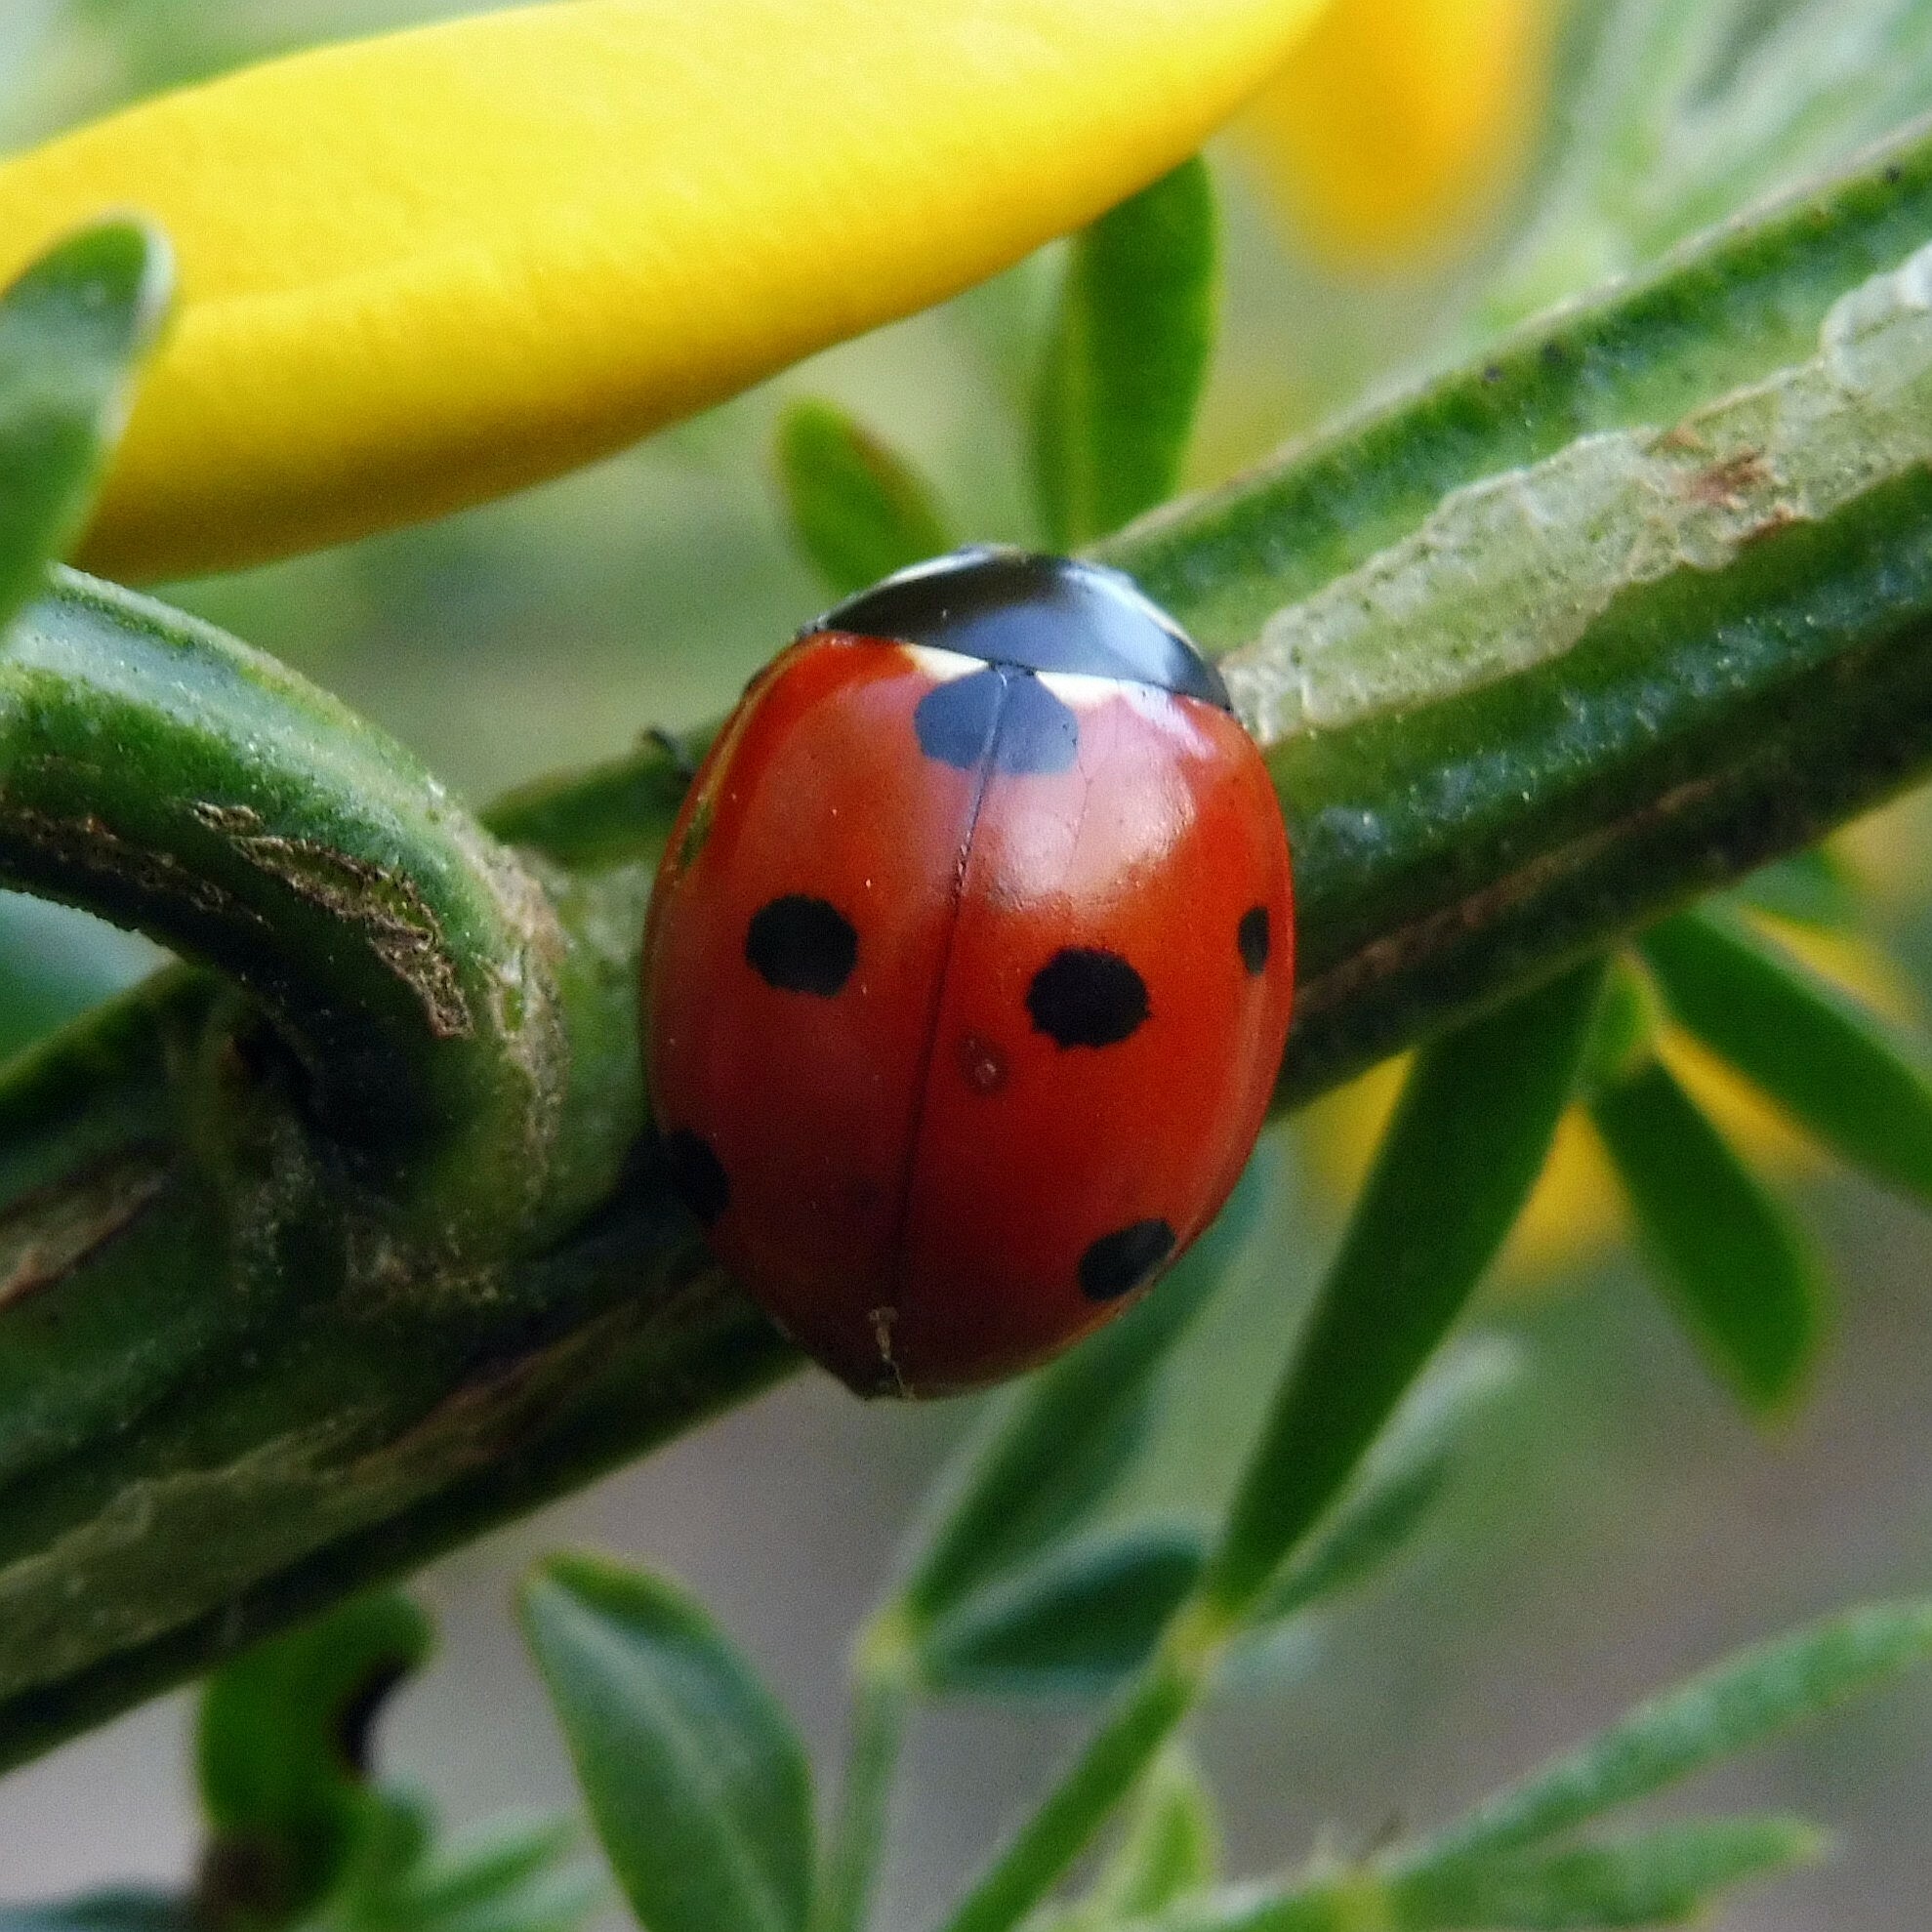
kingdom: Animalia
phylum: Arthropoda
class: Insecta
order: Coleoptera
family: Coccinellidae
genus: Coccinella
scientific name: Coccinella septempunctata
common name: Sevenspotted lady beetle
